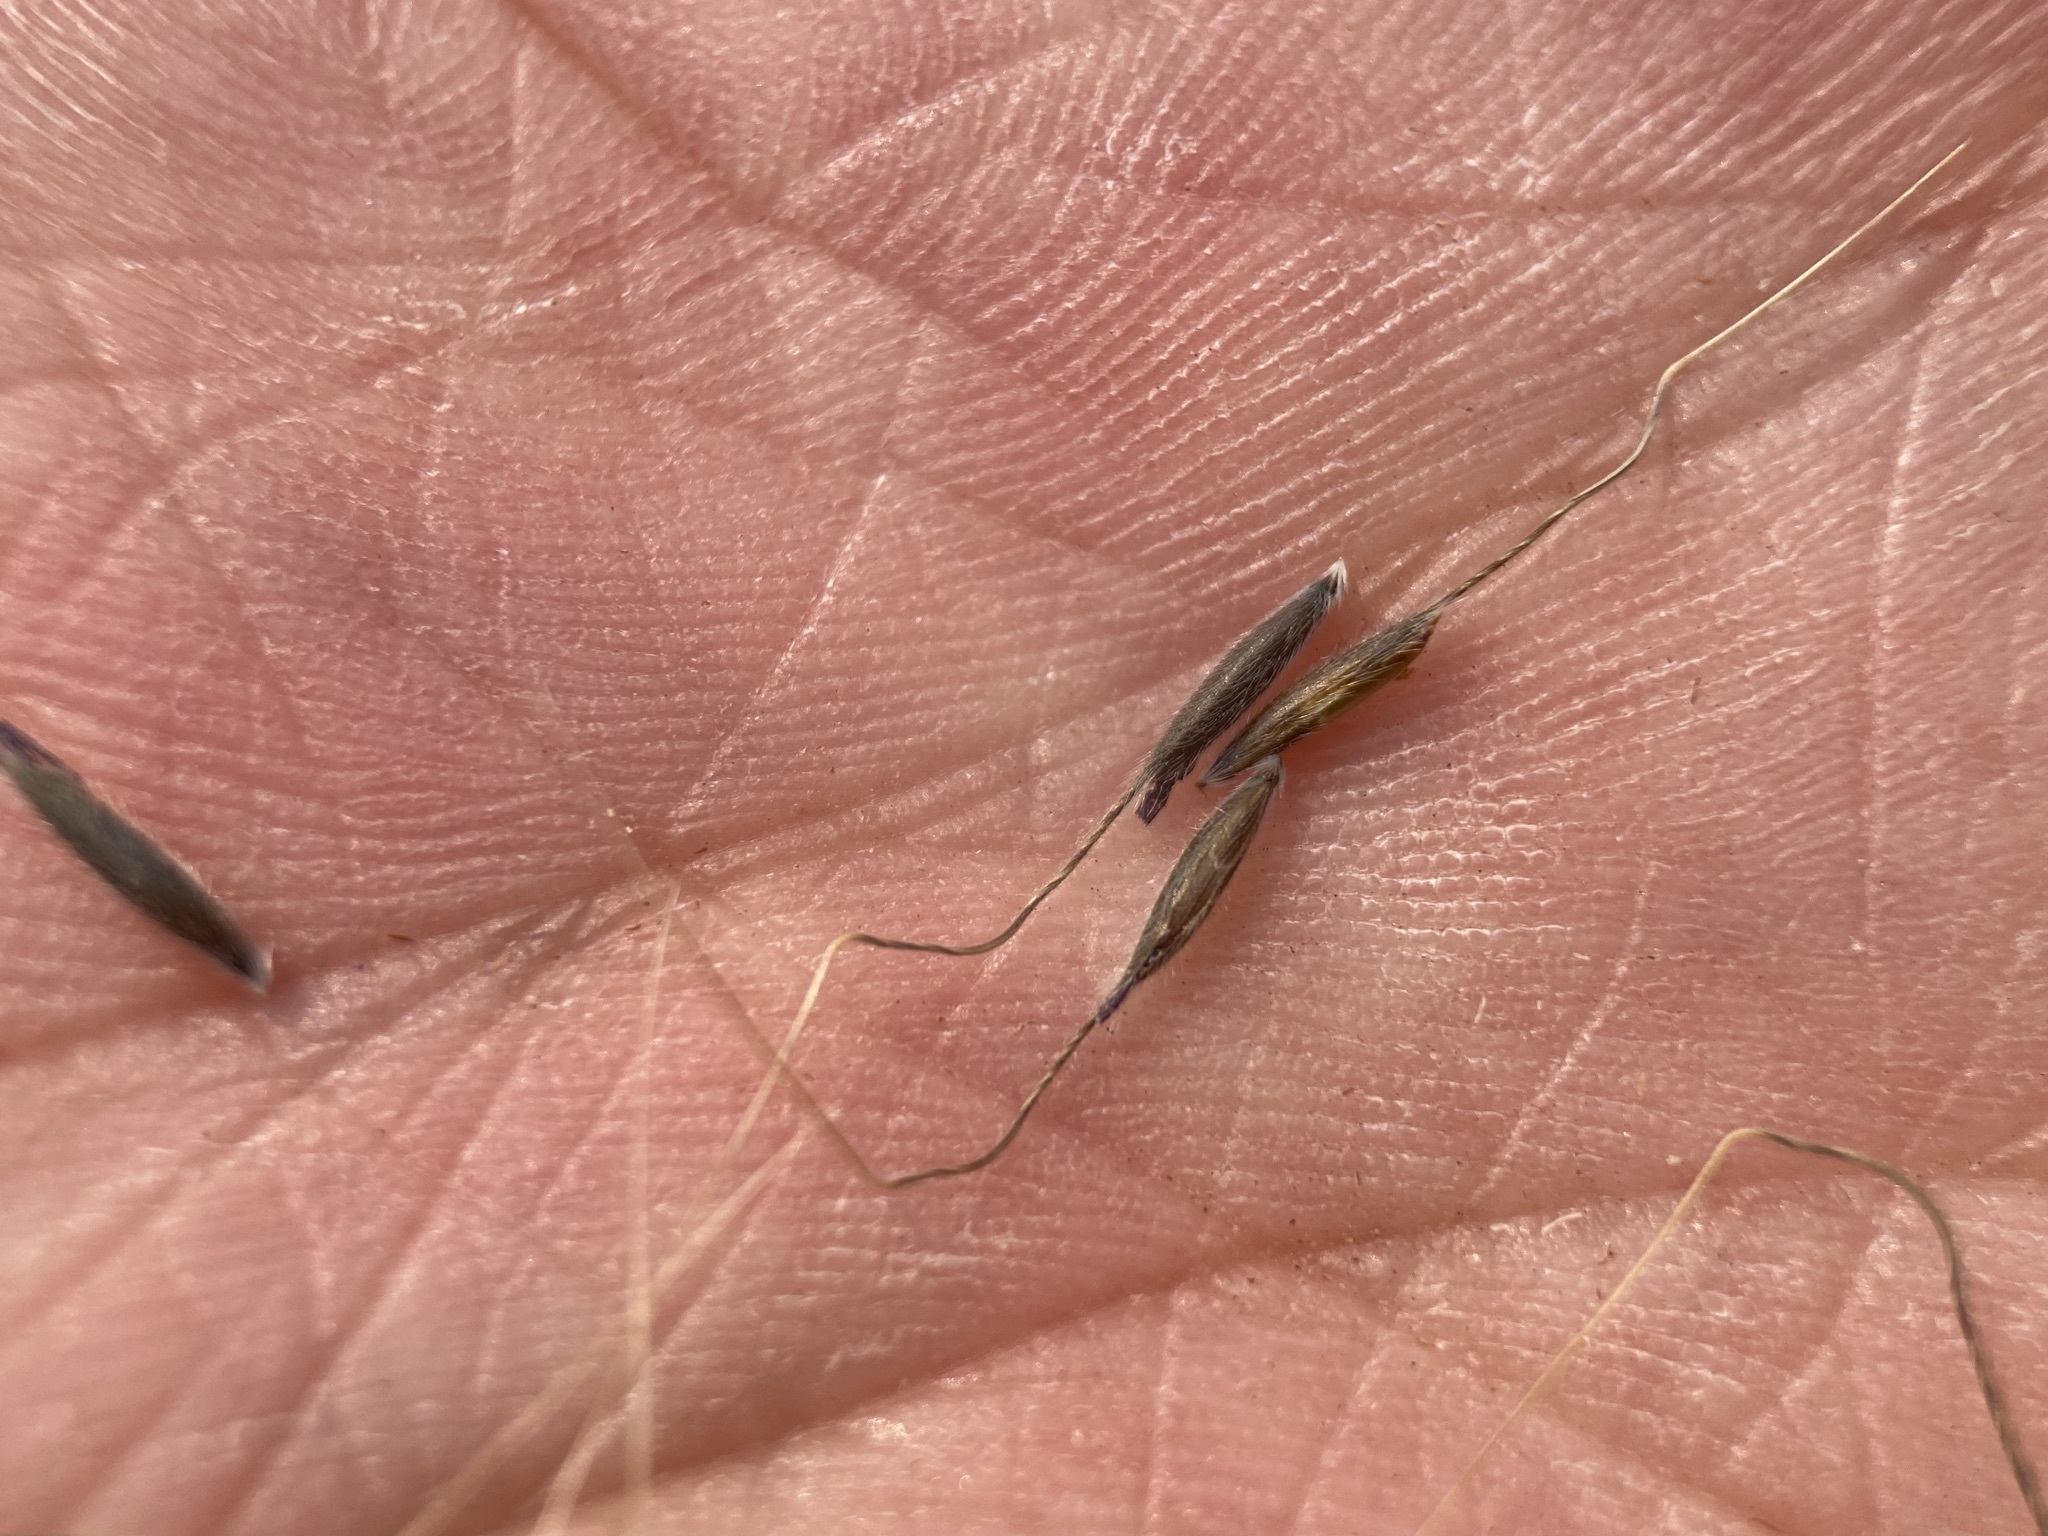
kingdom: Plantae
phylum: Tracheophyta
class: Liliopsida
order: Poales
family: Poaceae
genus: Eriocoma
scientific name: Eriocoma lemmonii
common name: Lemmon's needlegrass
